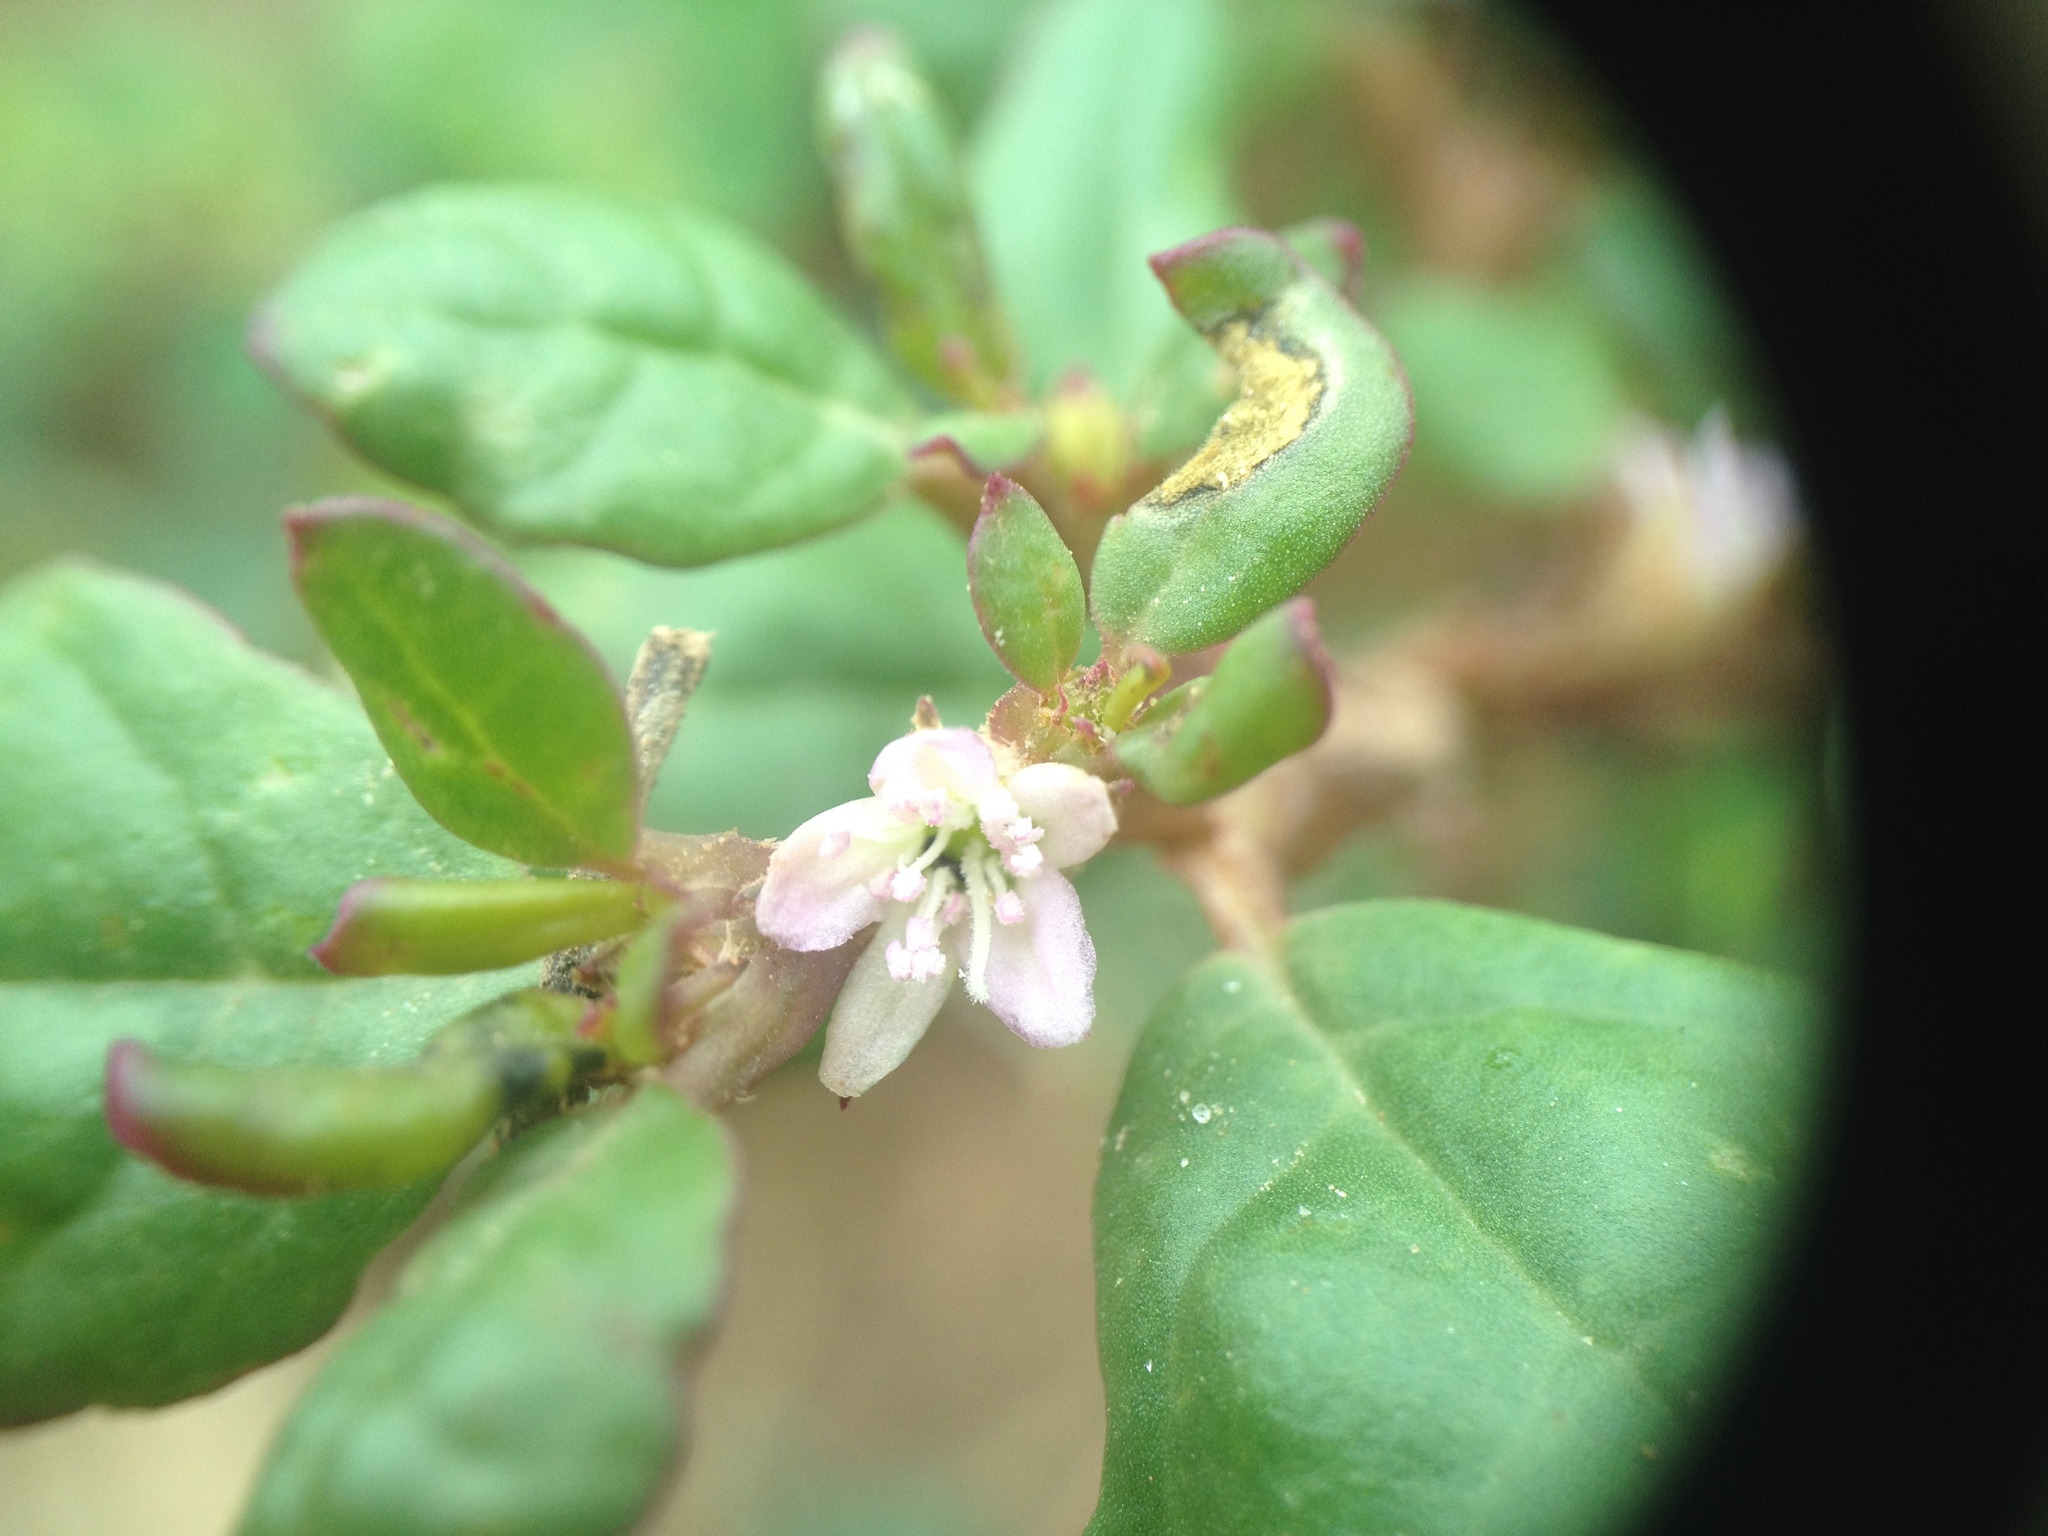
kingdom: Plantae
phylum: Tracheophyta
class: Magnoliopsida
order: Caryophyllales
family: Aizoaceae
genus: Trianthema
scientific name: Trianthema portulacastrum
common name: Desert horsepurslane
